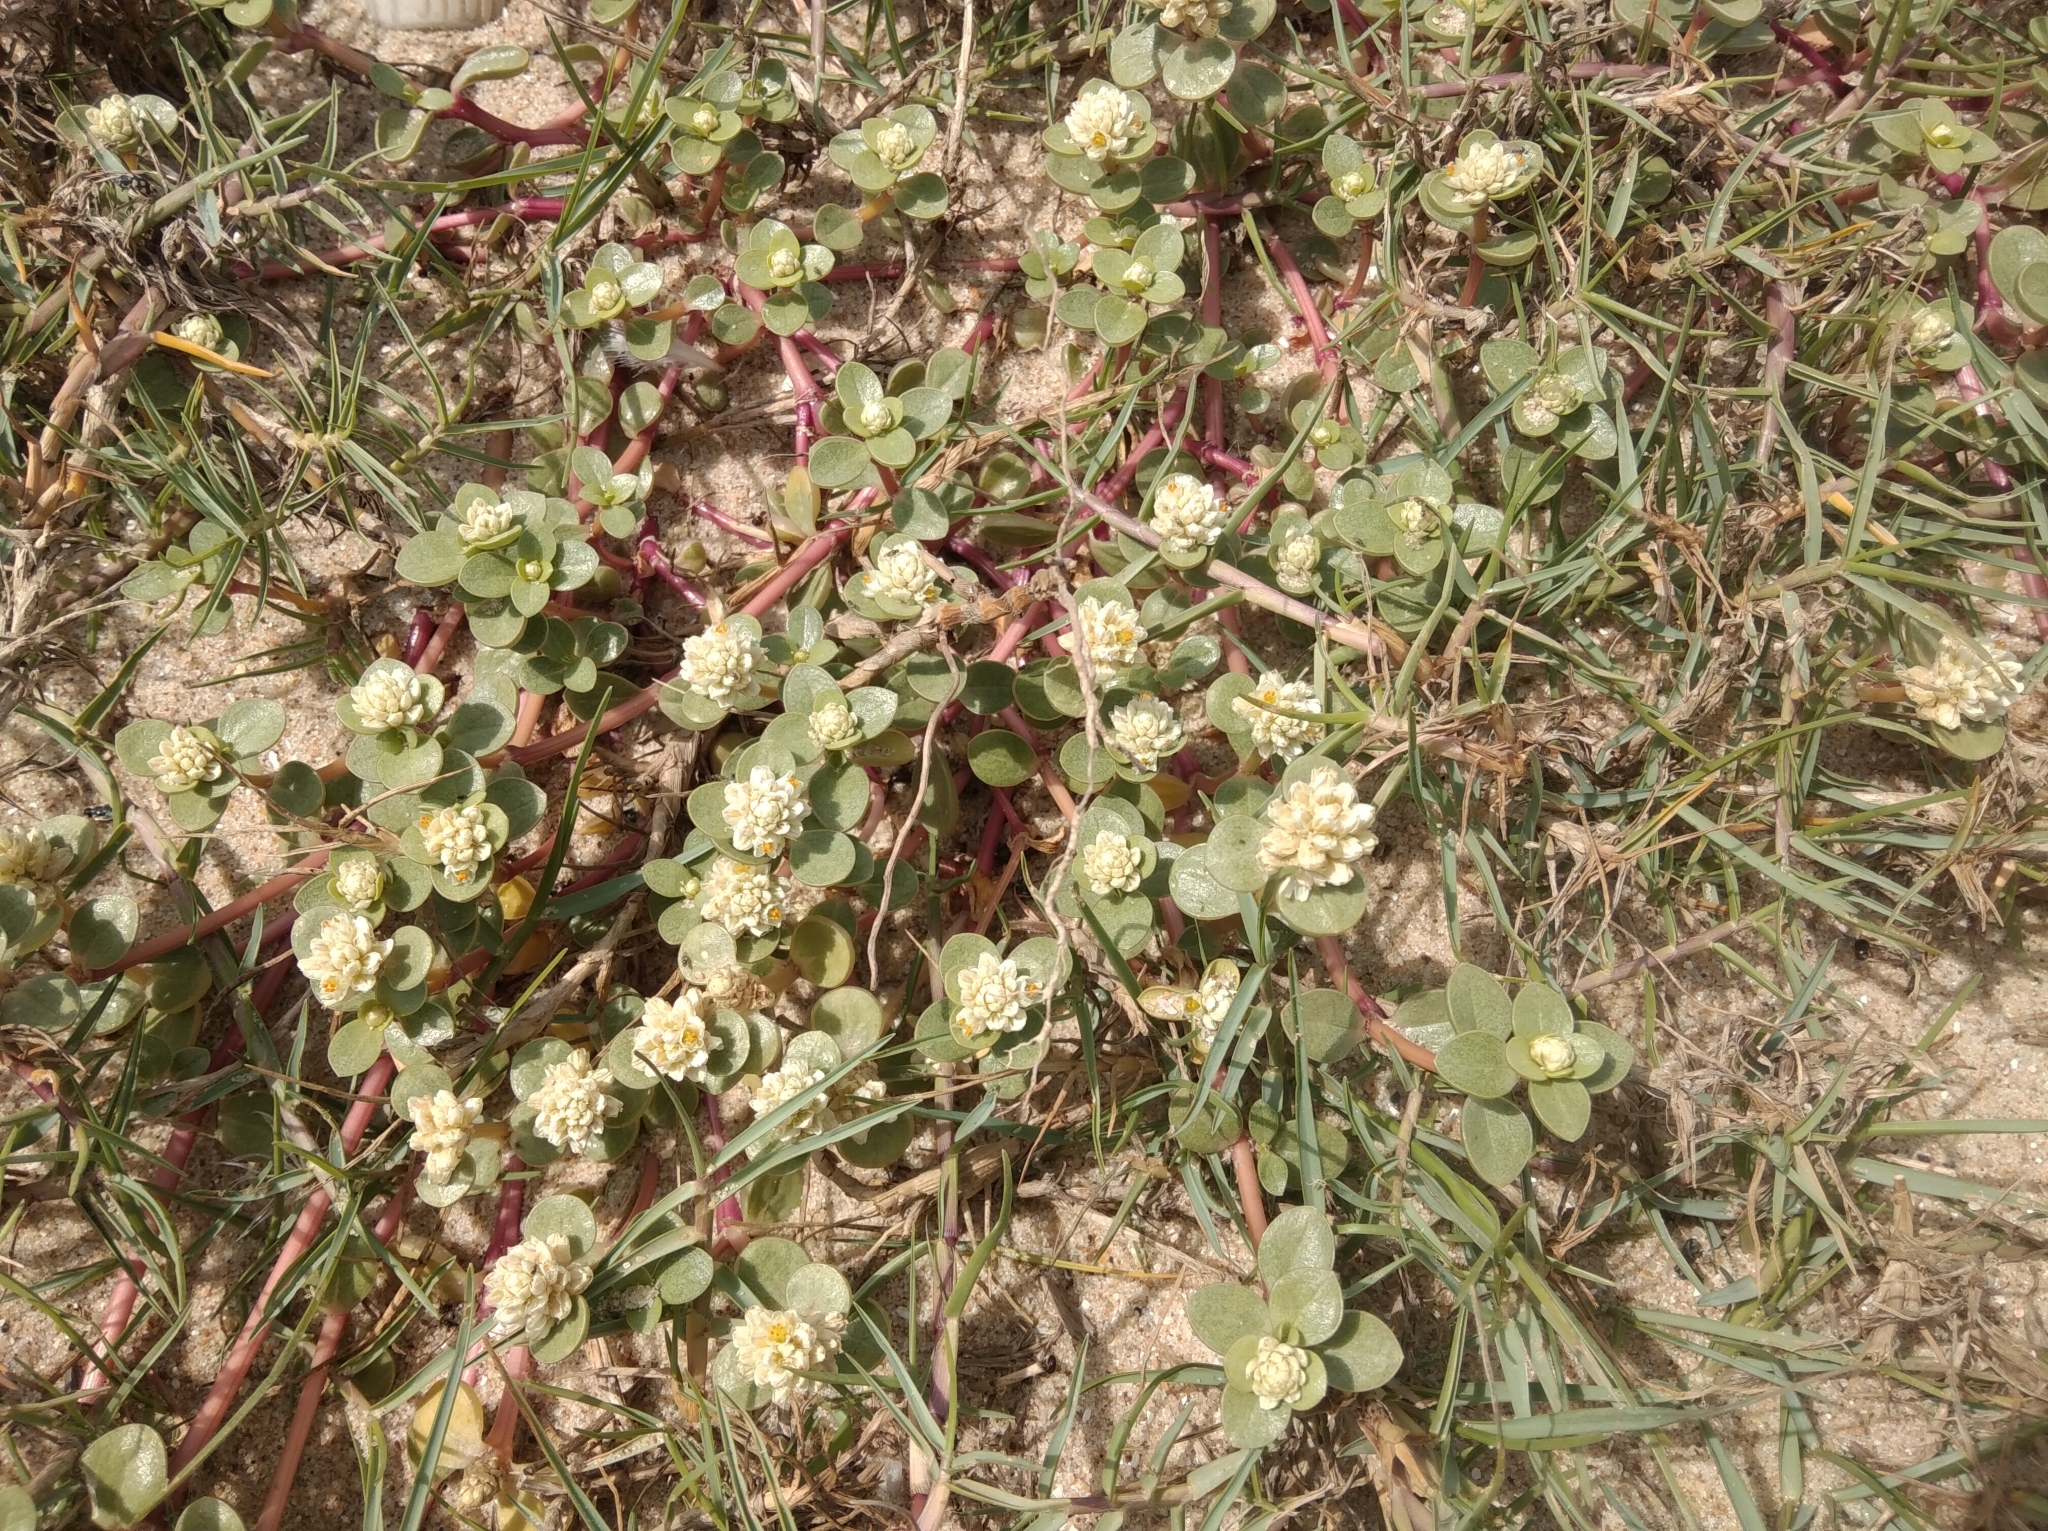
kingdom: Plantae
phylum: Tracheophyta
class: Magnoliopsida
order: Caryophyllales
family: Amaranthaceae
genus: Gomphrena
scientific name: Gomphrena portulacoides
